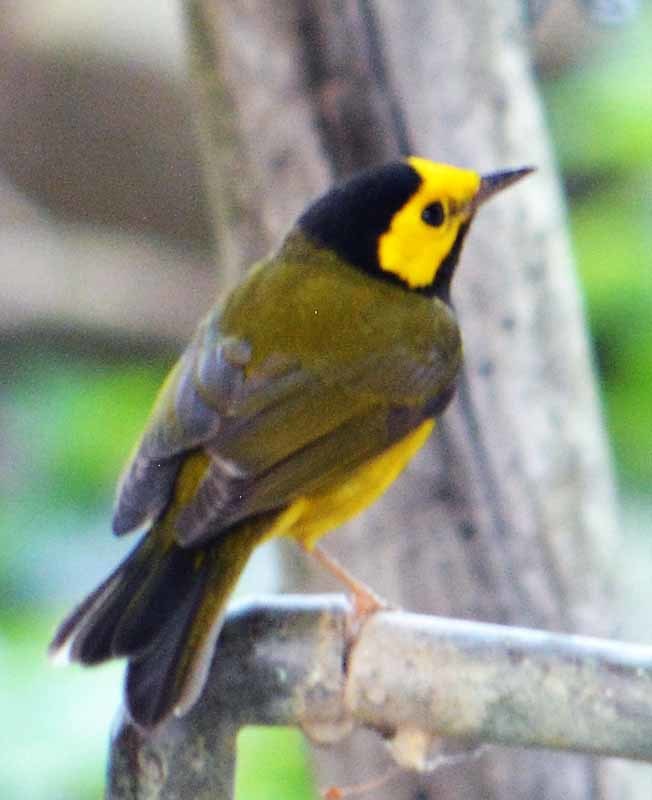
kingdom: Animalia
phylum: Chordata
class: Aves
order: Passeriformes
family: Parulidae
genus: Setophaga
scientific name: Setophaga citrina
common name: Hooded warbler
